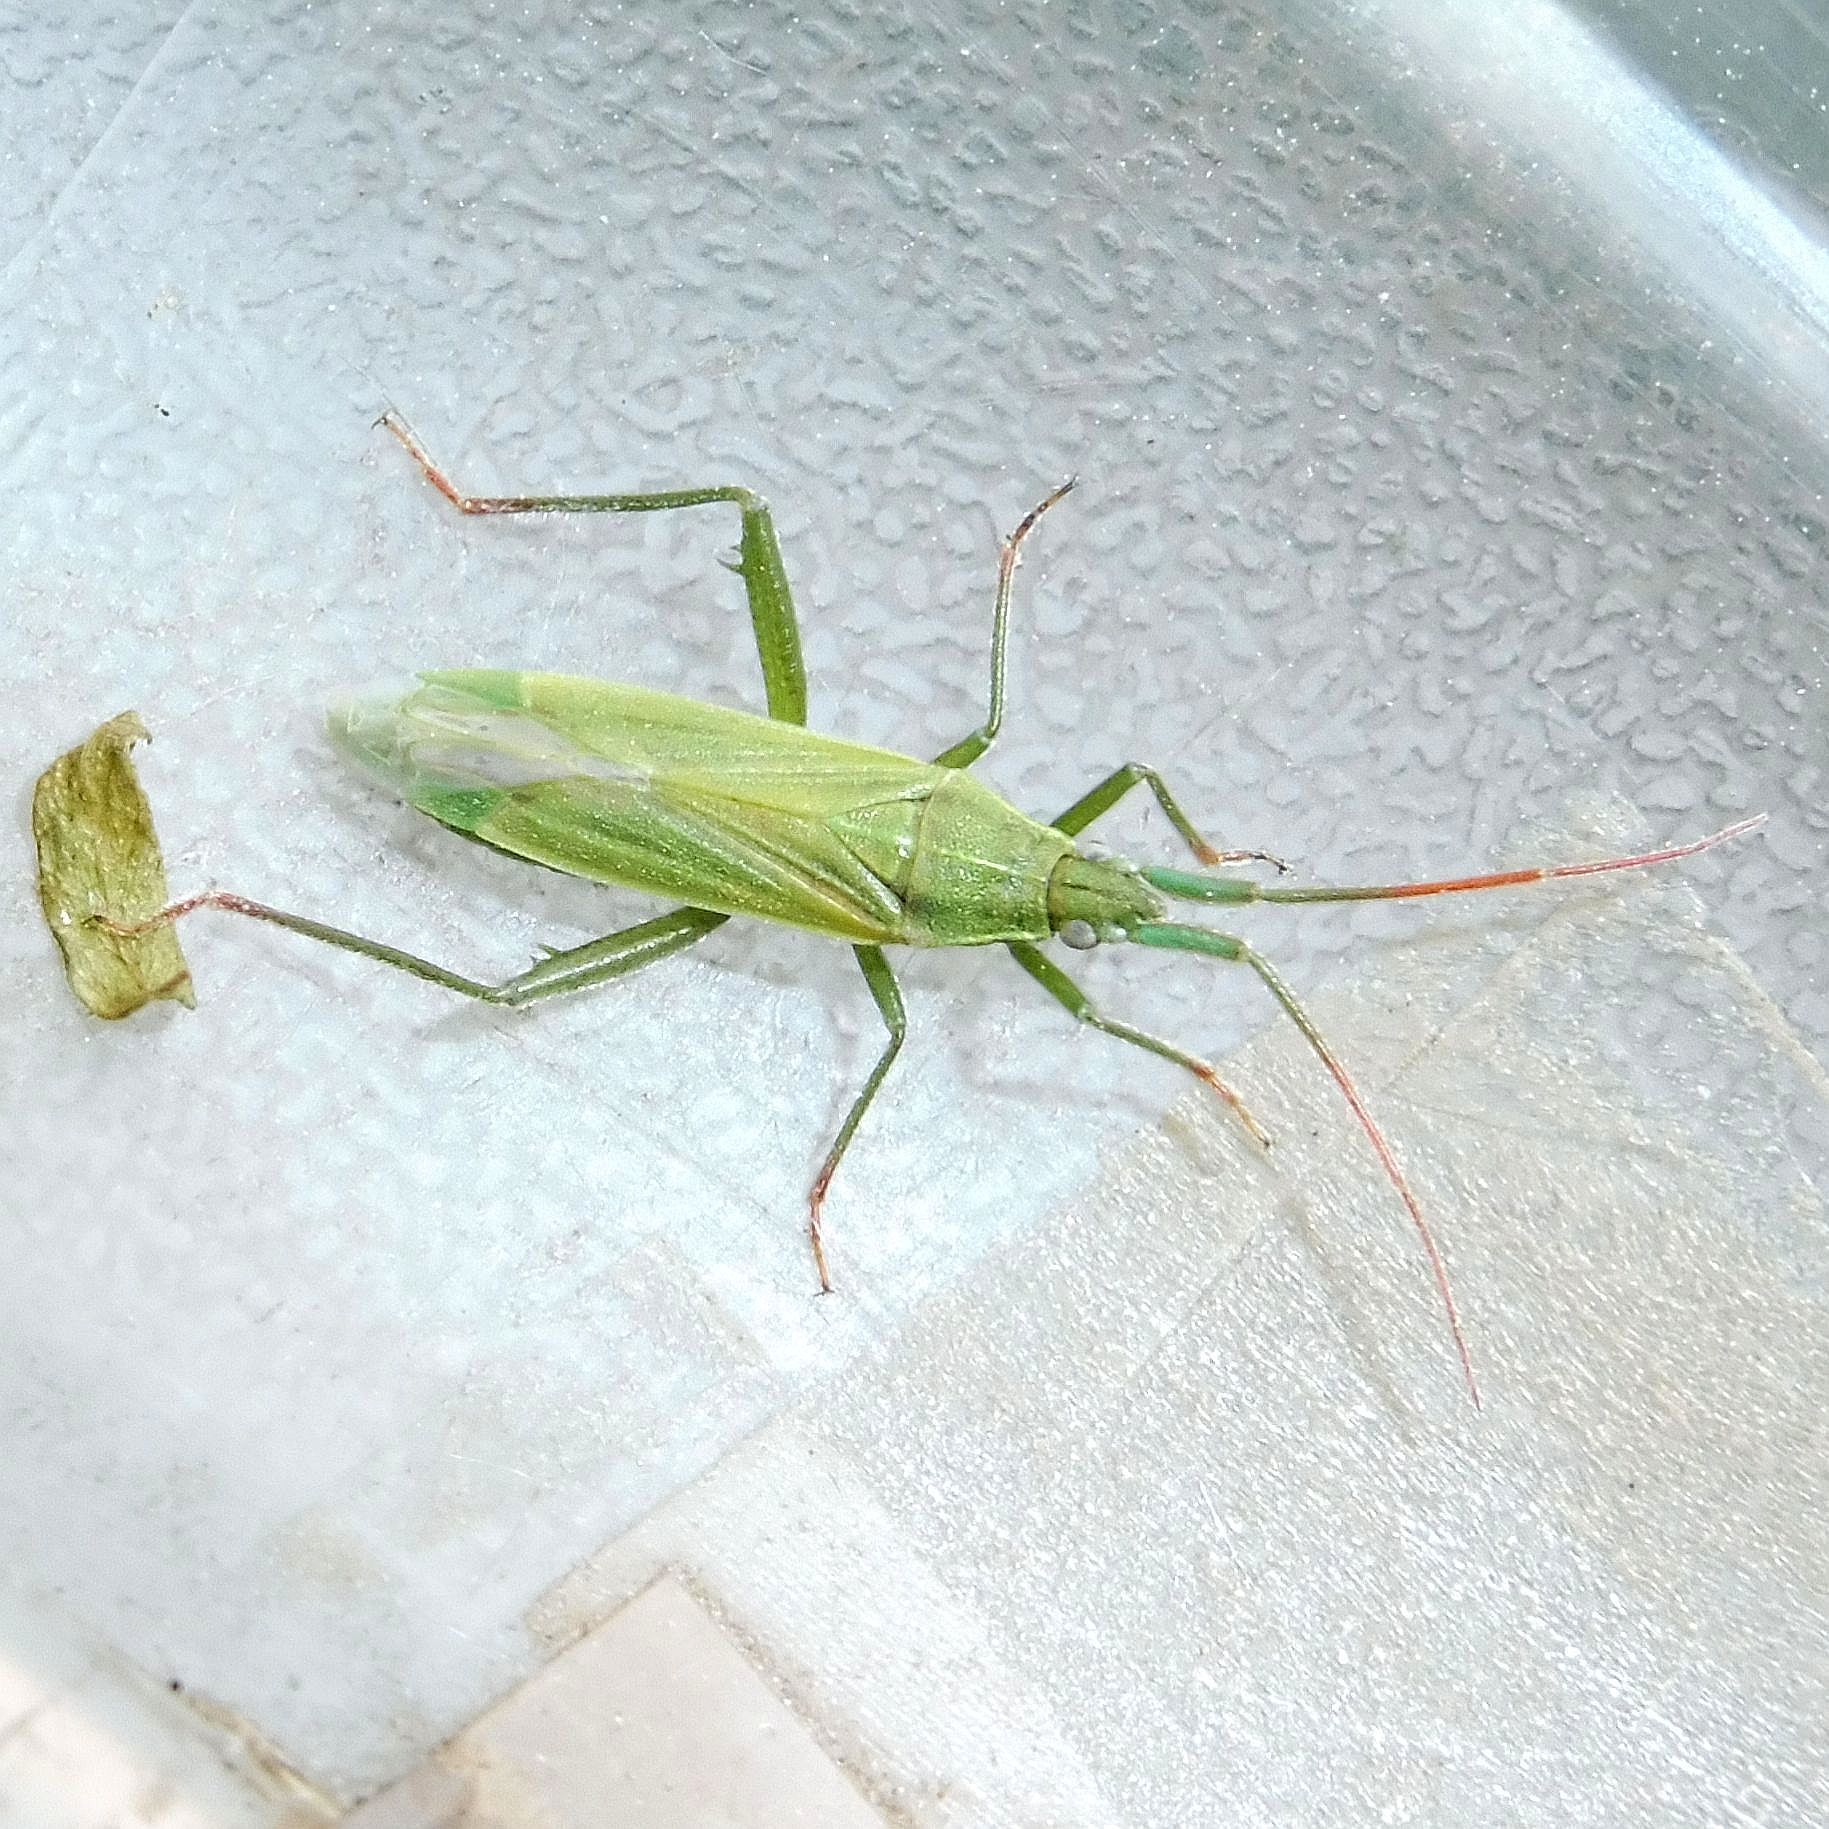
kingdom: Animalia
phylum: Arthropoda
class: Insecta
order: Hemiptera
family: Miridae
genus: Stenodema
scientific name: Stenodema calcarata
